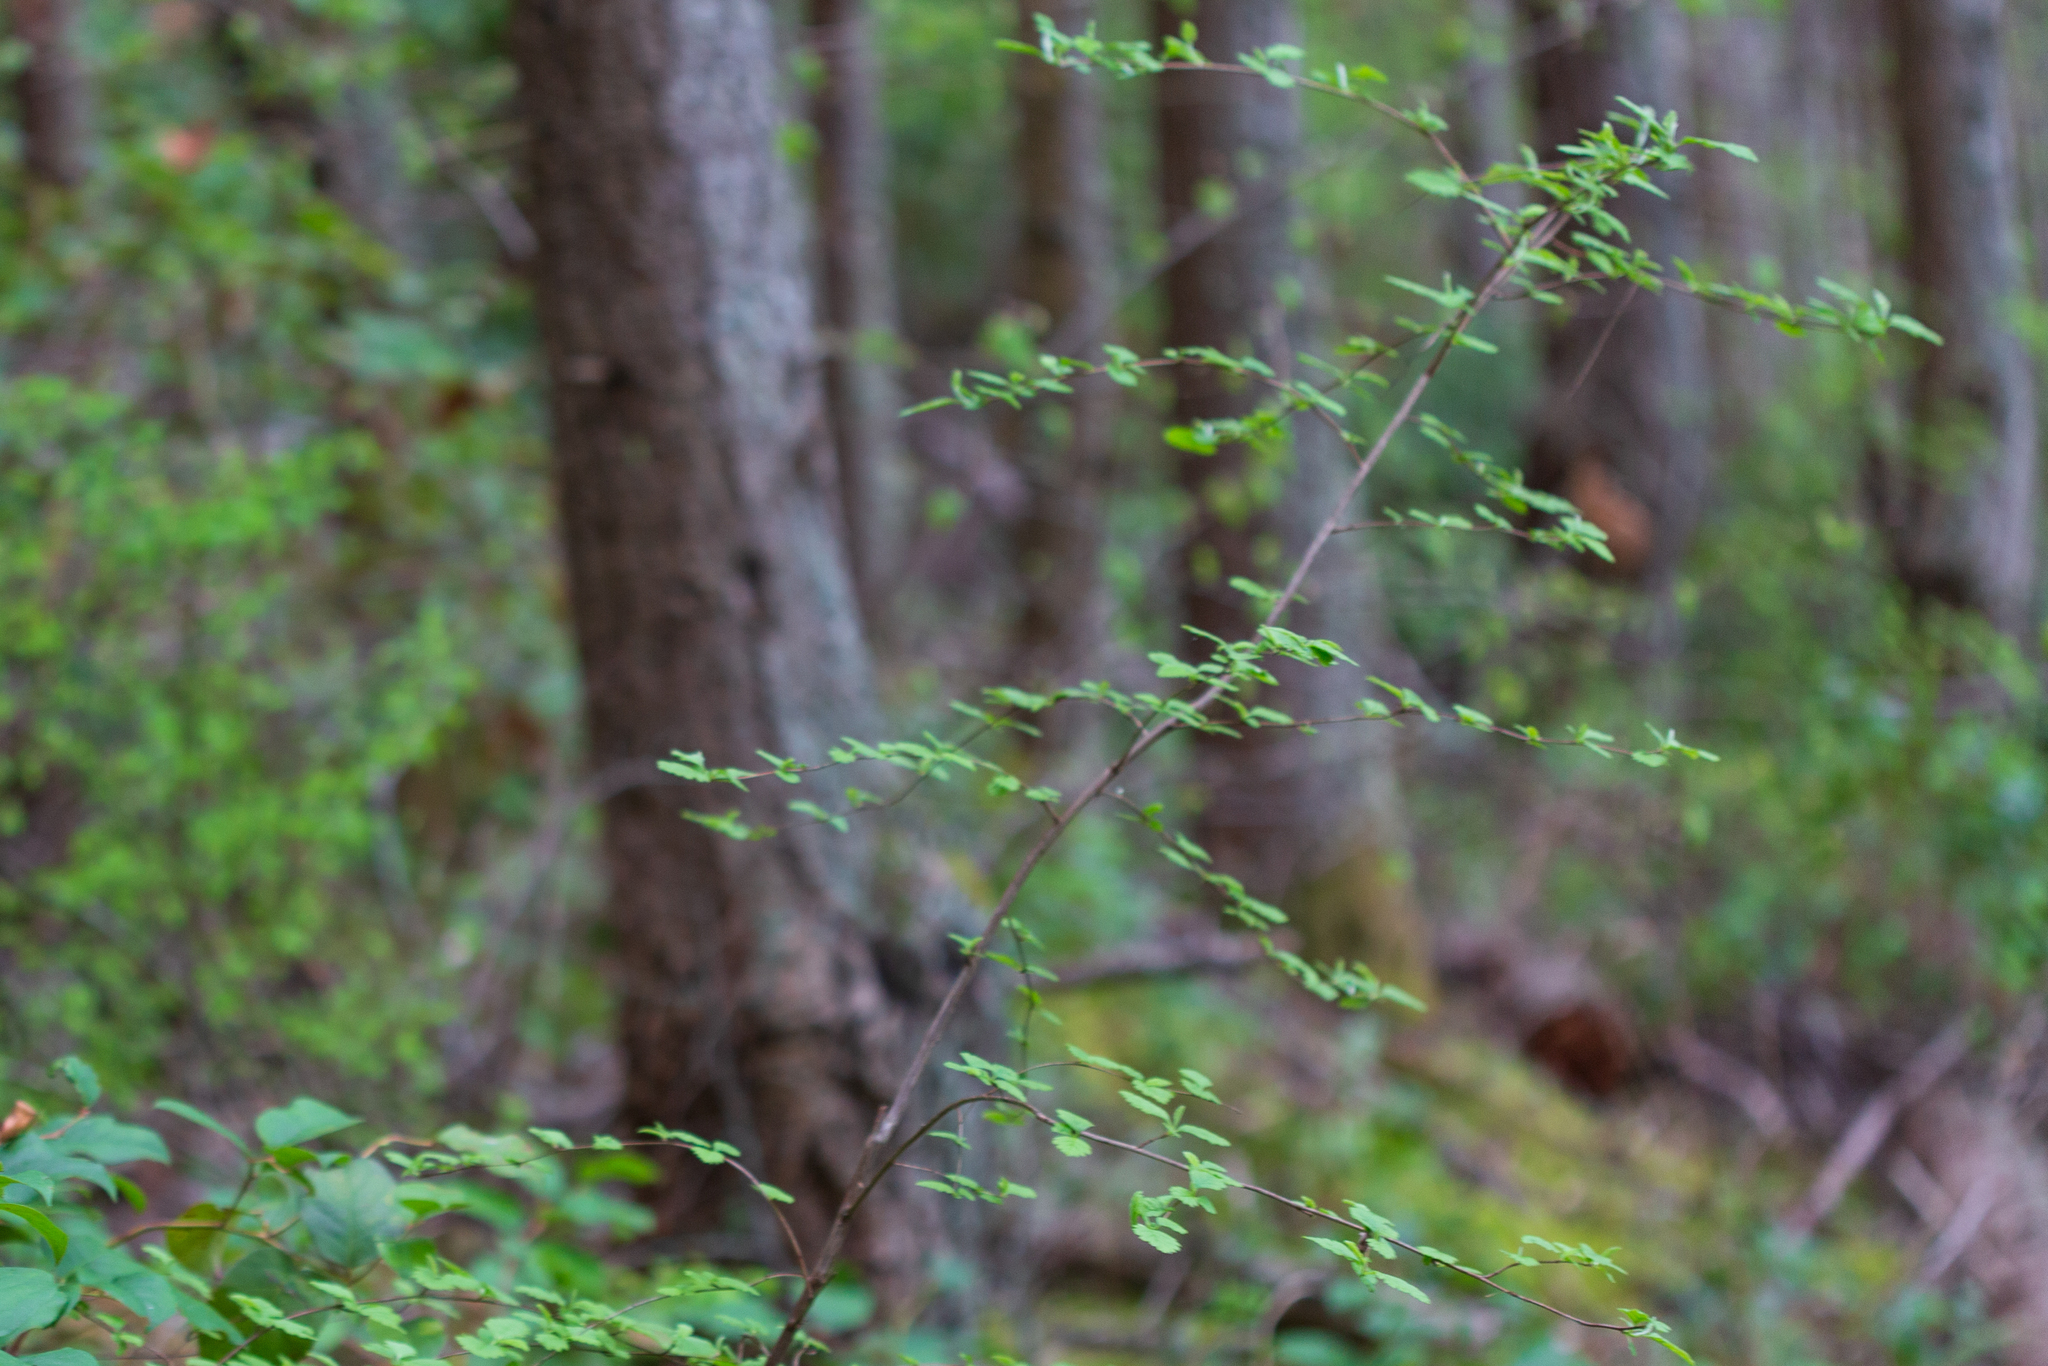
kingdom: Plantae
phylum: Tracheophyta
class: Magnoliopsida
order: Rosales
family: Rosaceae
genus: Holodiscus
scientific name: Holodiscus discolor
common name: Oceanspray
